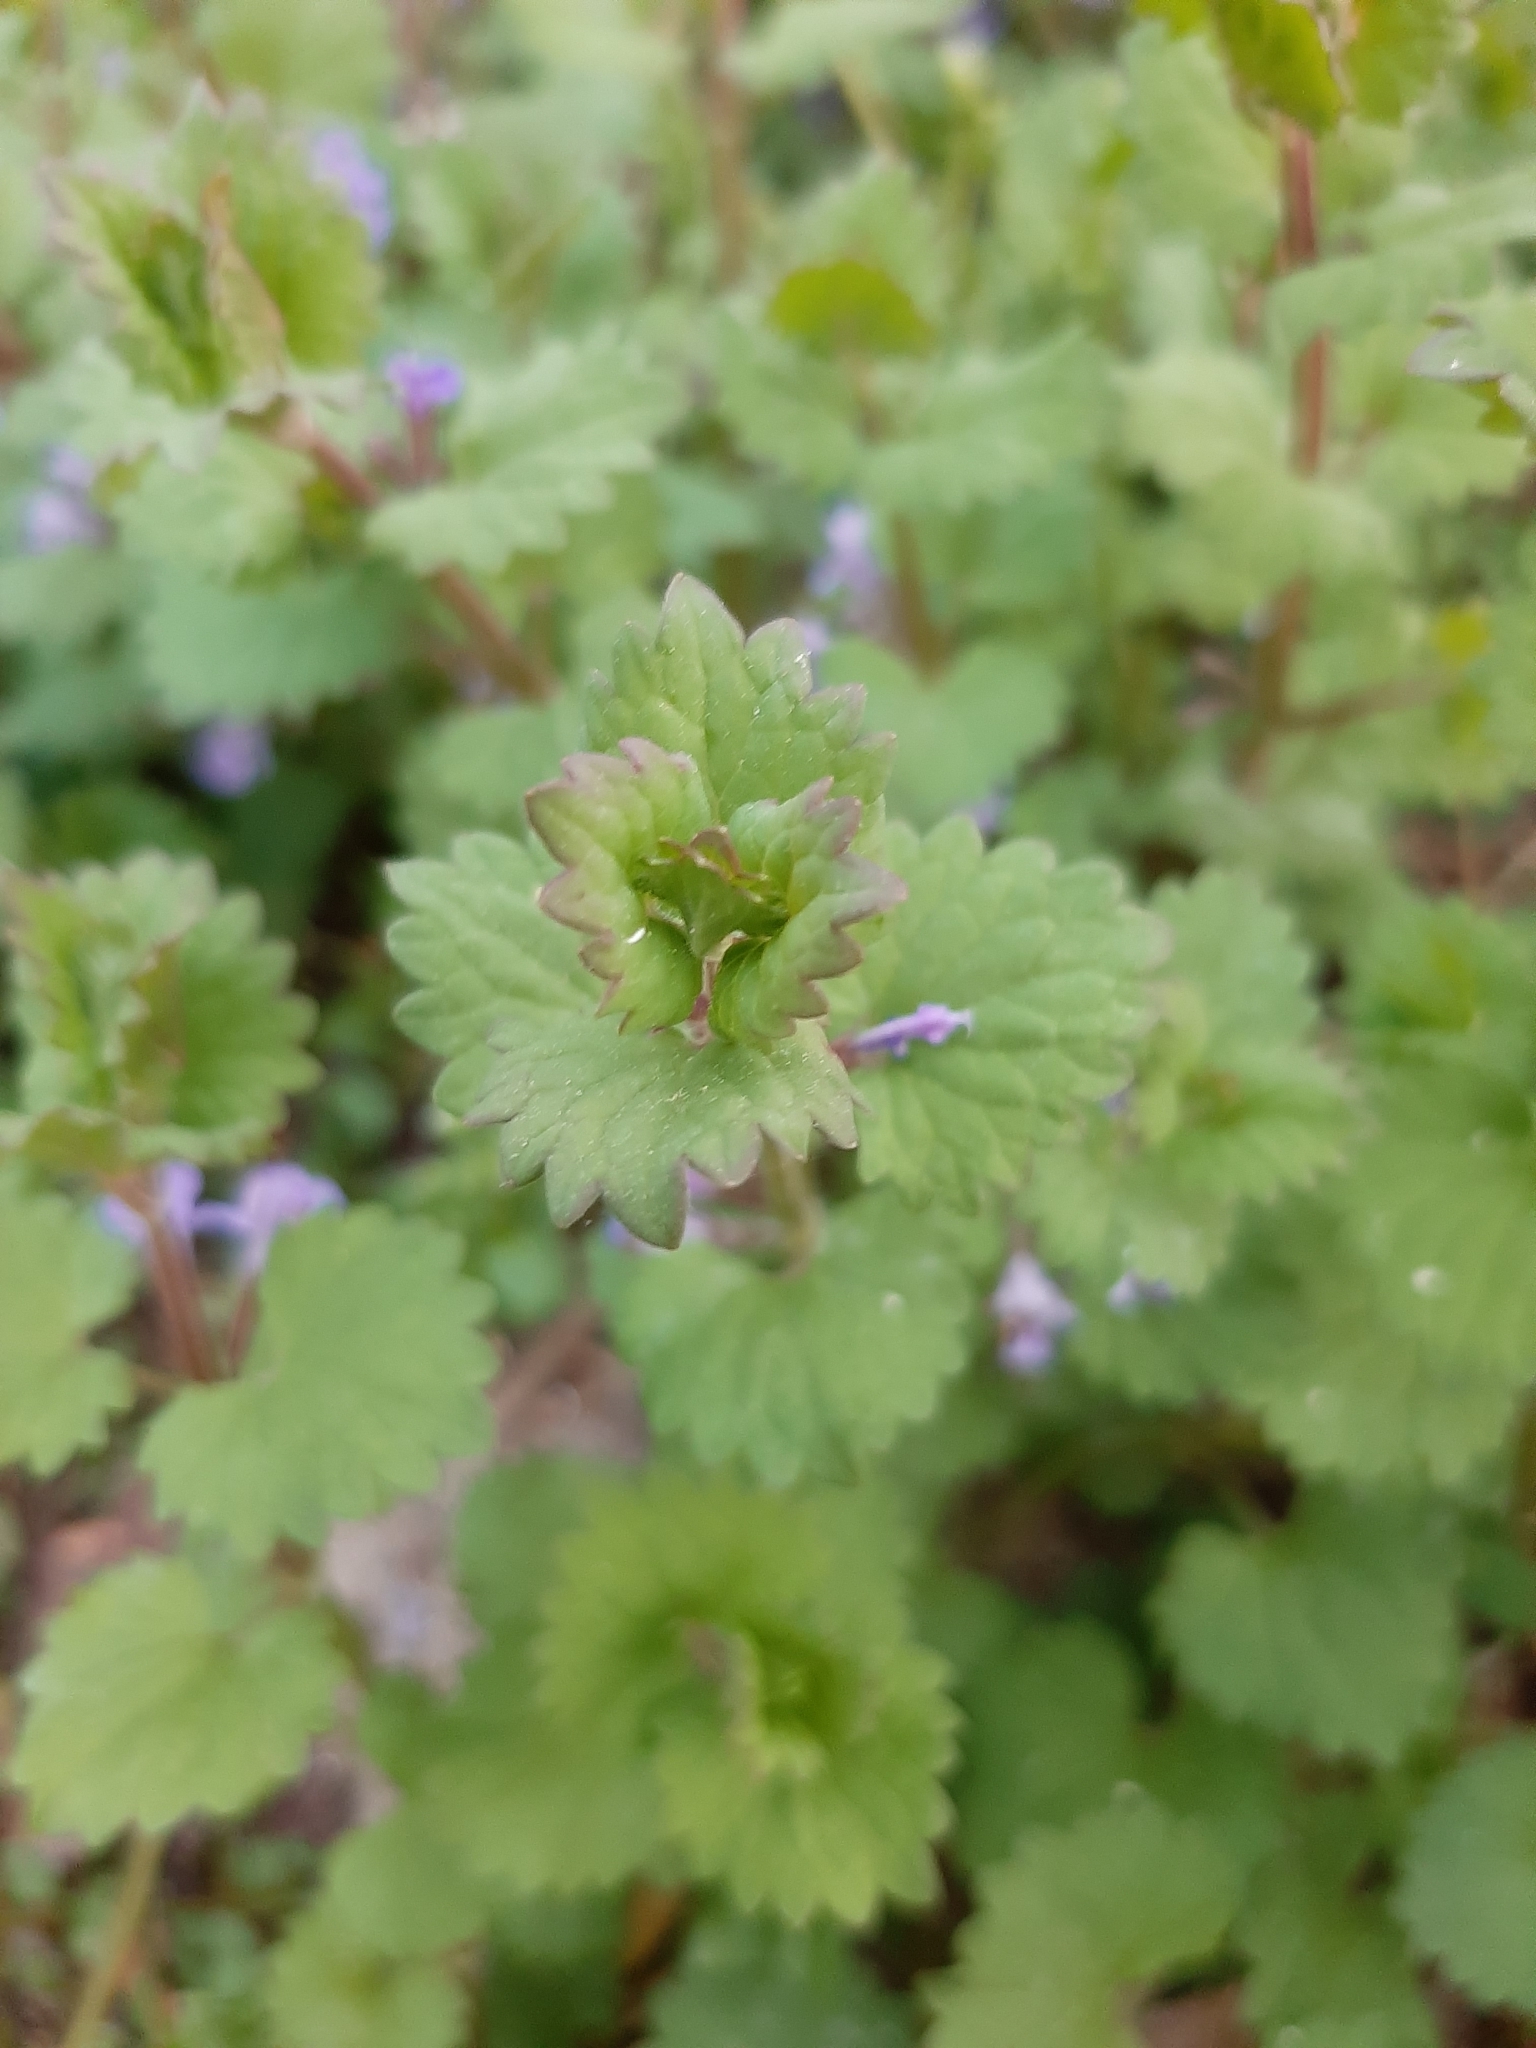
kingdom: Plantae
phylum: Tracheophyta
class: Magnoliopsida
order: Lamiales
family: Lamiaceae
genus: Glechoma
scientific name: Glechoma hederacea
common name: Ground ivy
